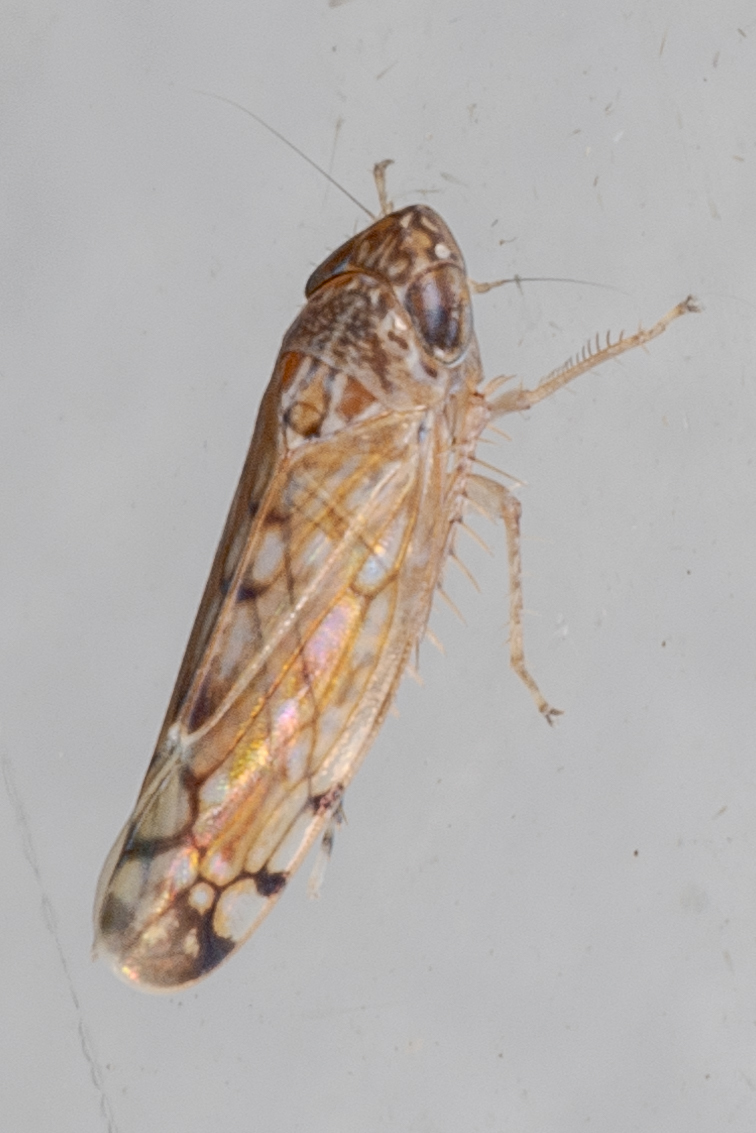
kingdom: Animalia
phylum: Arthropoda
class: Insecta
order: Hemiptera
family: Cicadellidae
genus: Osbornellus
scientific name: Osbornellus filamenta
